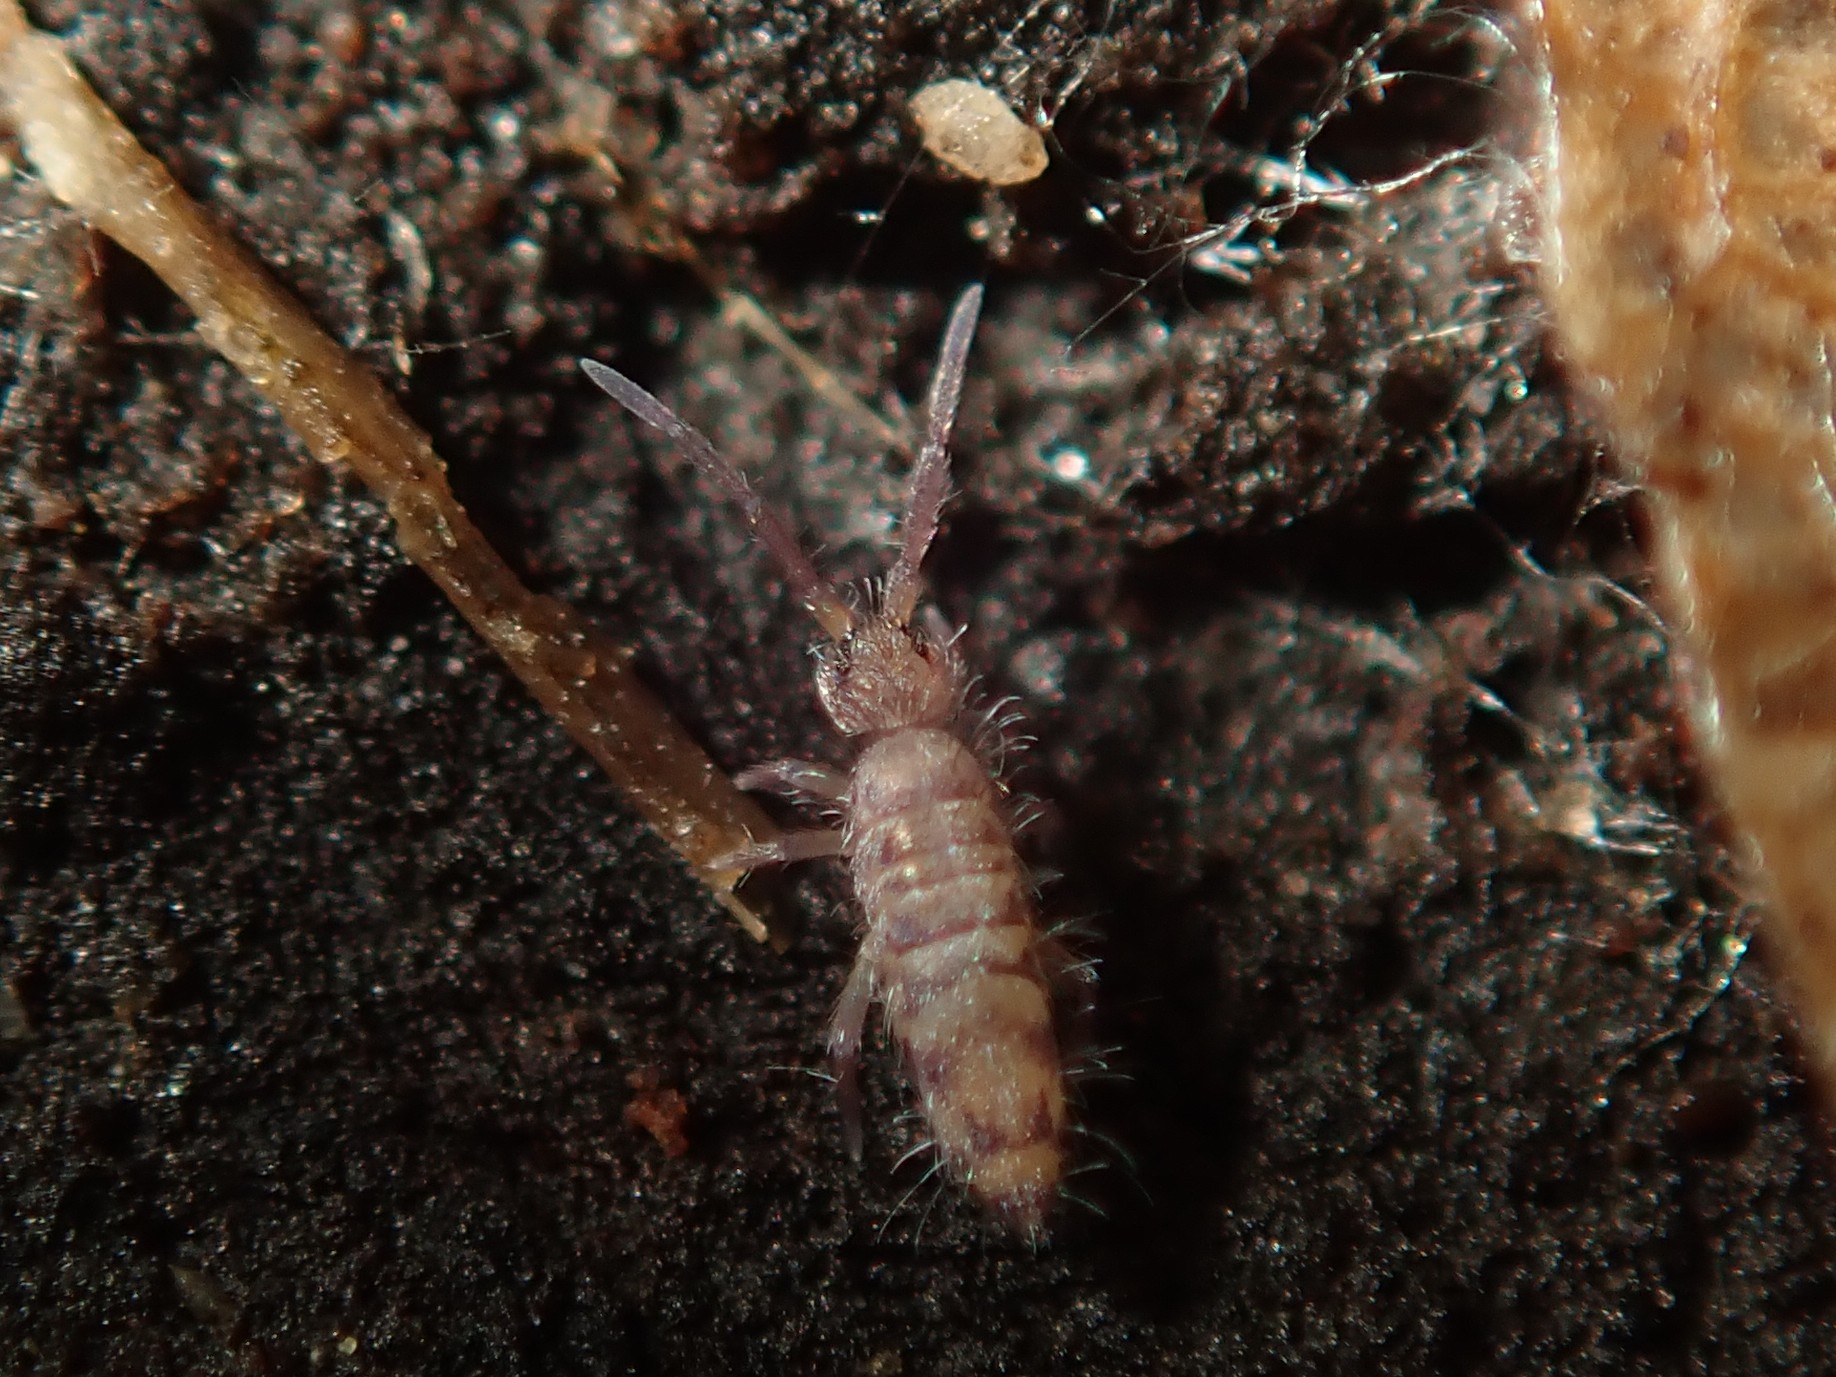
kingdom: Animalia
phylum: Arthropoda
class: Collembola
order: Entomobryomorpha
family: Entomobryidae
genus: Entomobrya
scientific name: Entomobrya multifasciata
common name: Springtail
